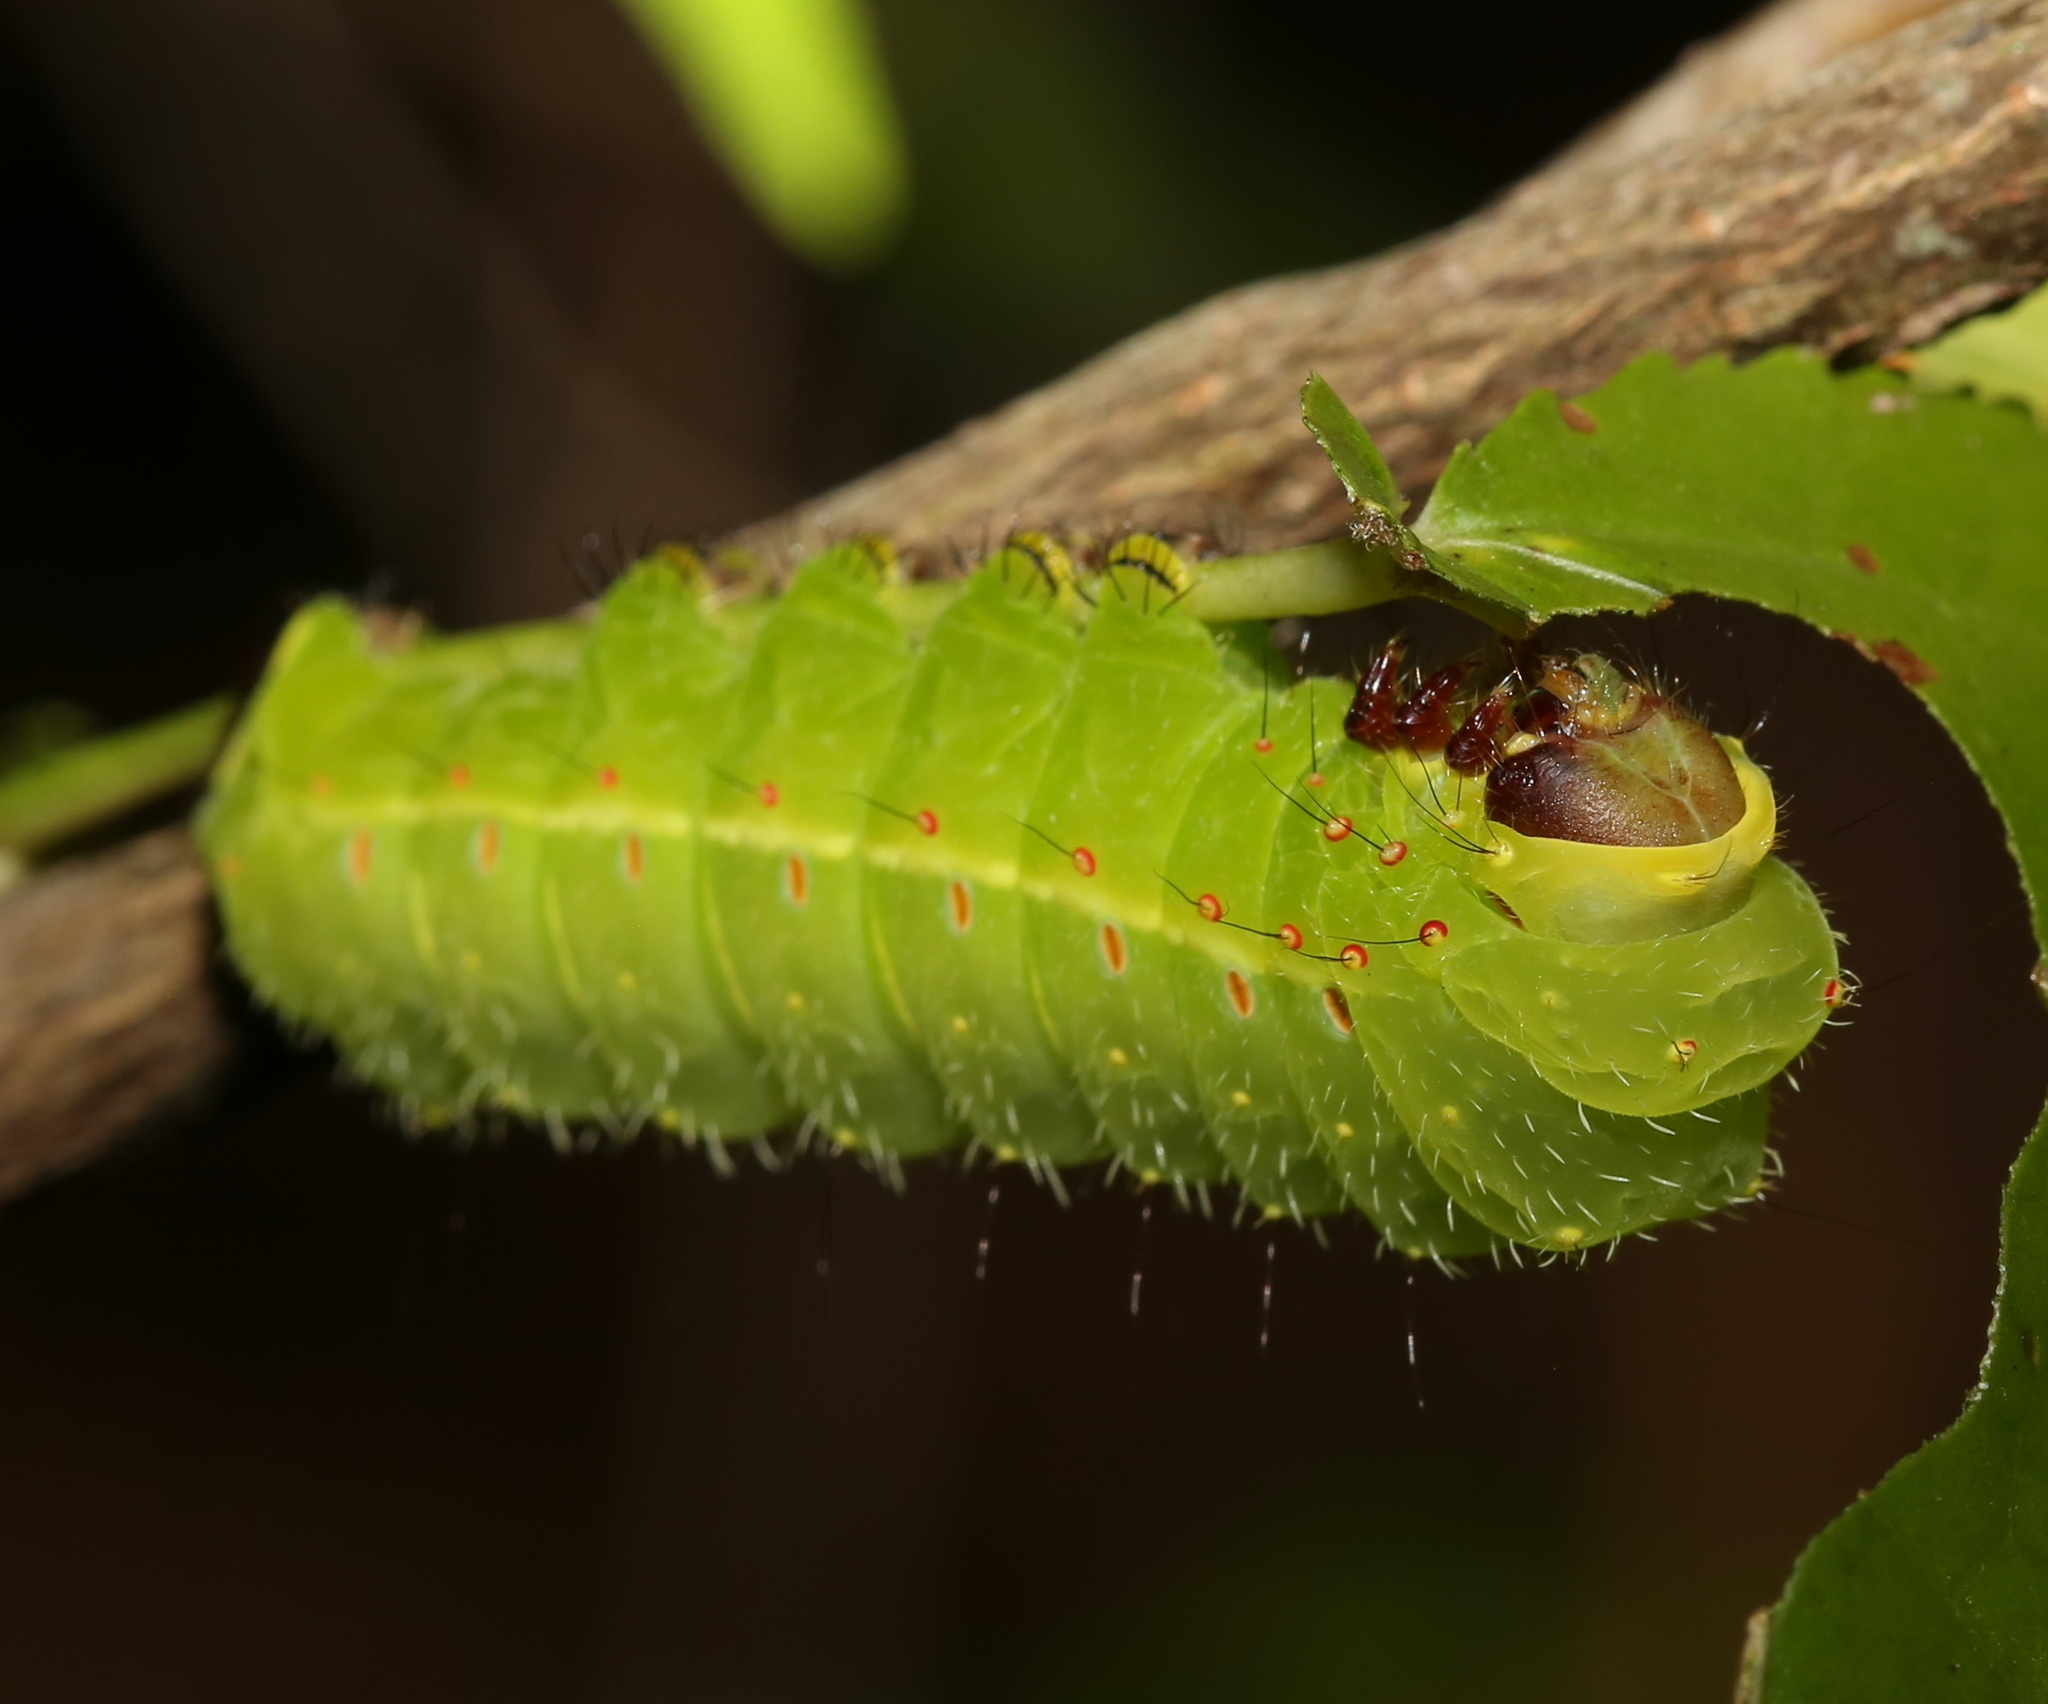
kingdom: Animalia
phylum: Arthropoda
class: Insecta
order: Lepidoptera
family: Saturniidae
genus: Actias
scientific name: Actias luna
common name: Luna moth
